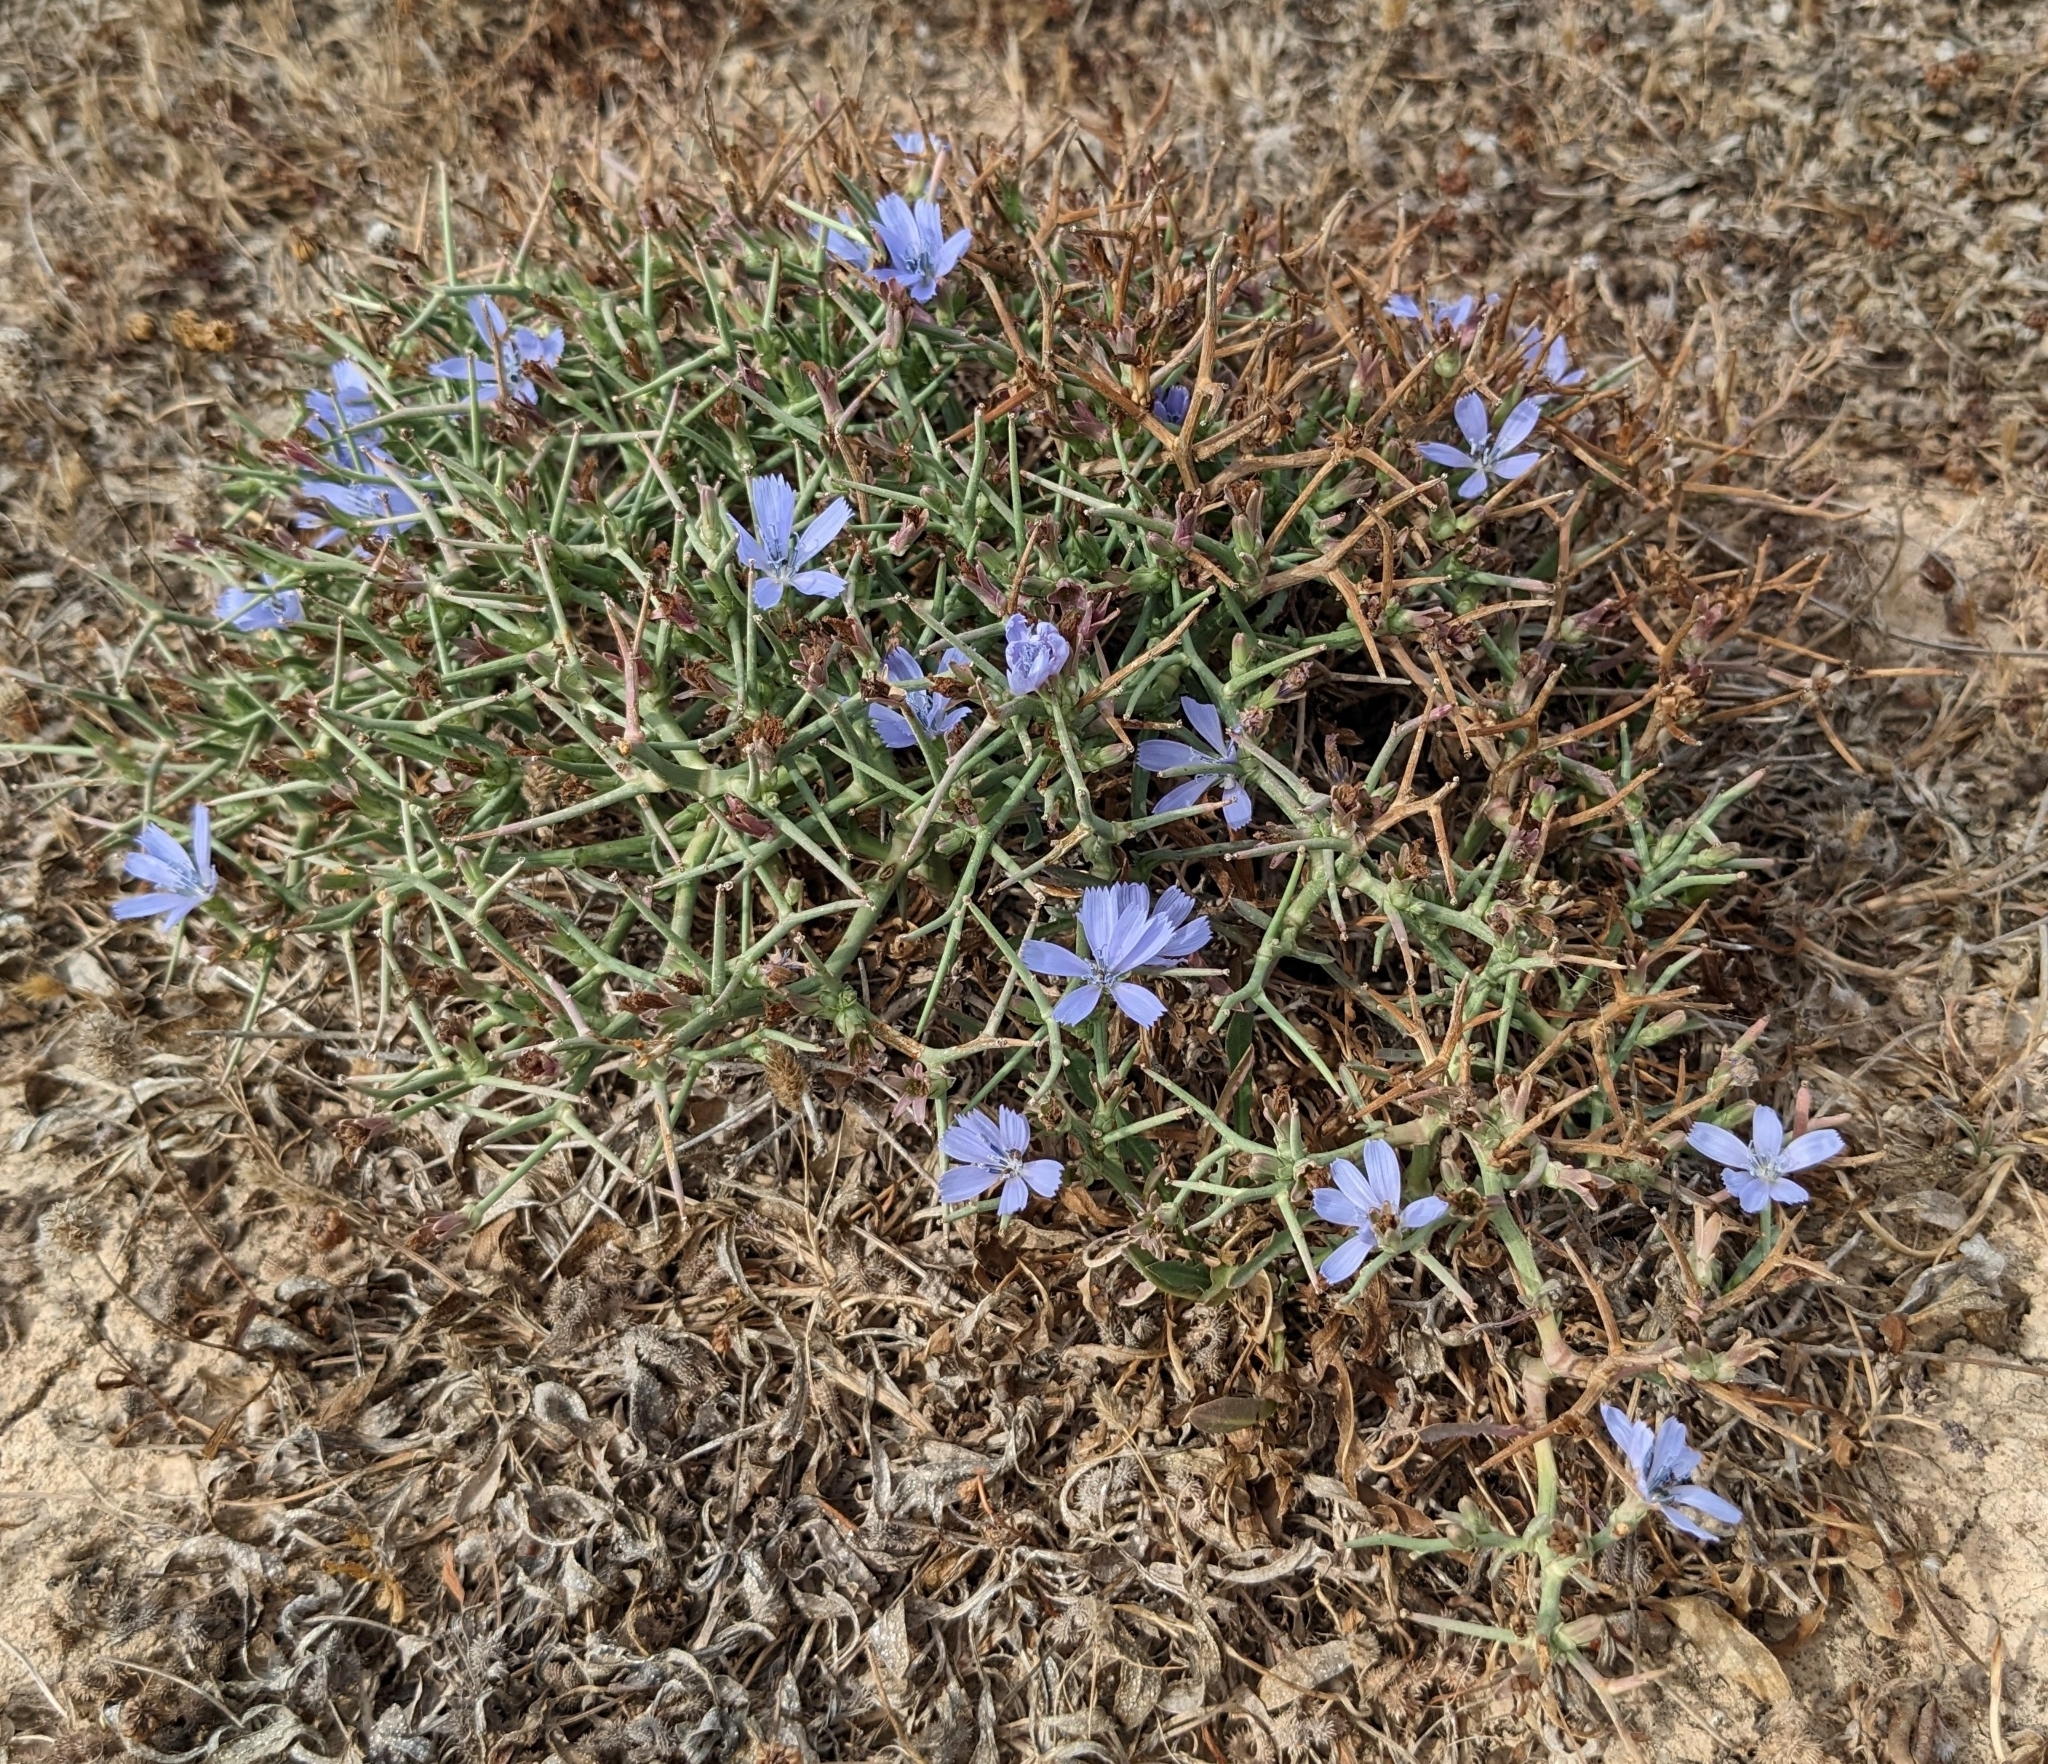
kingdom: Plantae
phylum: Tracheophyta
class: Magnoliopsida
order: Asterales
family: Asteraceae
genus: Cichorium
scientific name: Cichorium spinosum
